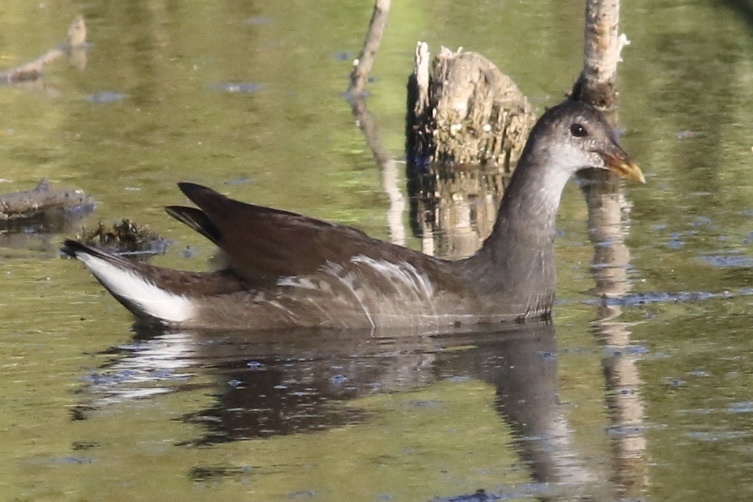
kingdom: Animalia
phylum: Chordata
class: Aves
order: Gruiformes
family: Rallidae
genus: Gallinula
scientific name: Gallinula chloropus
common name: Common moorhen
